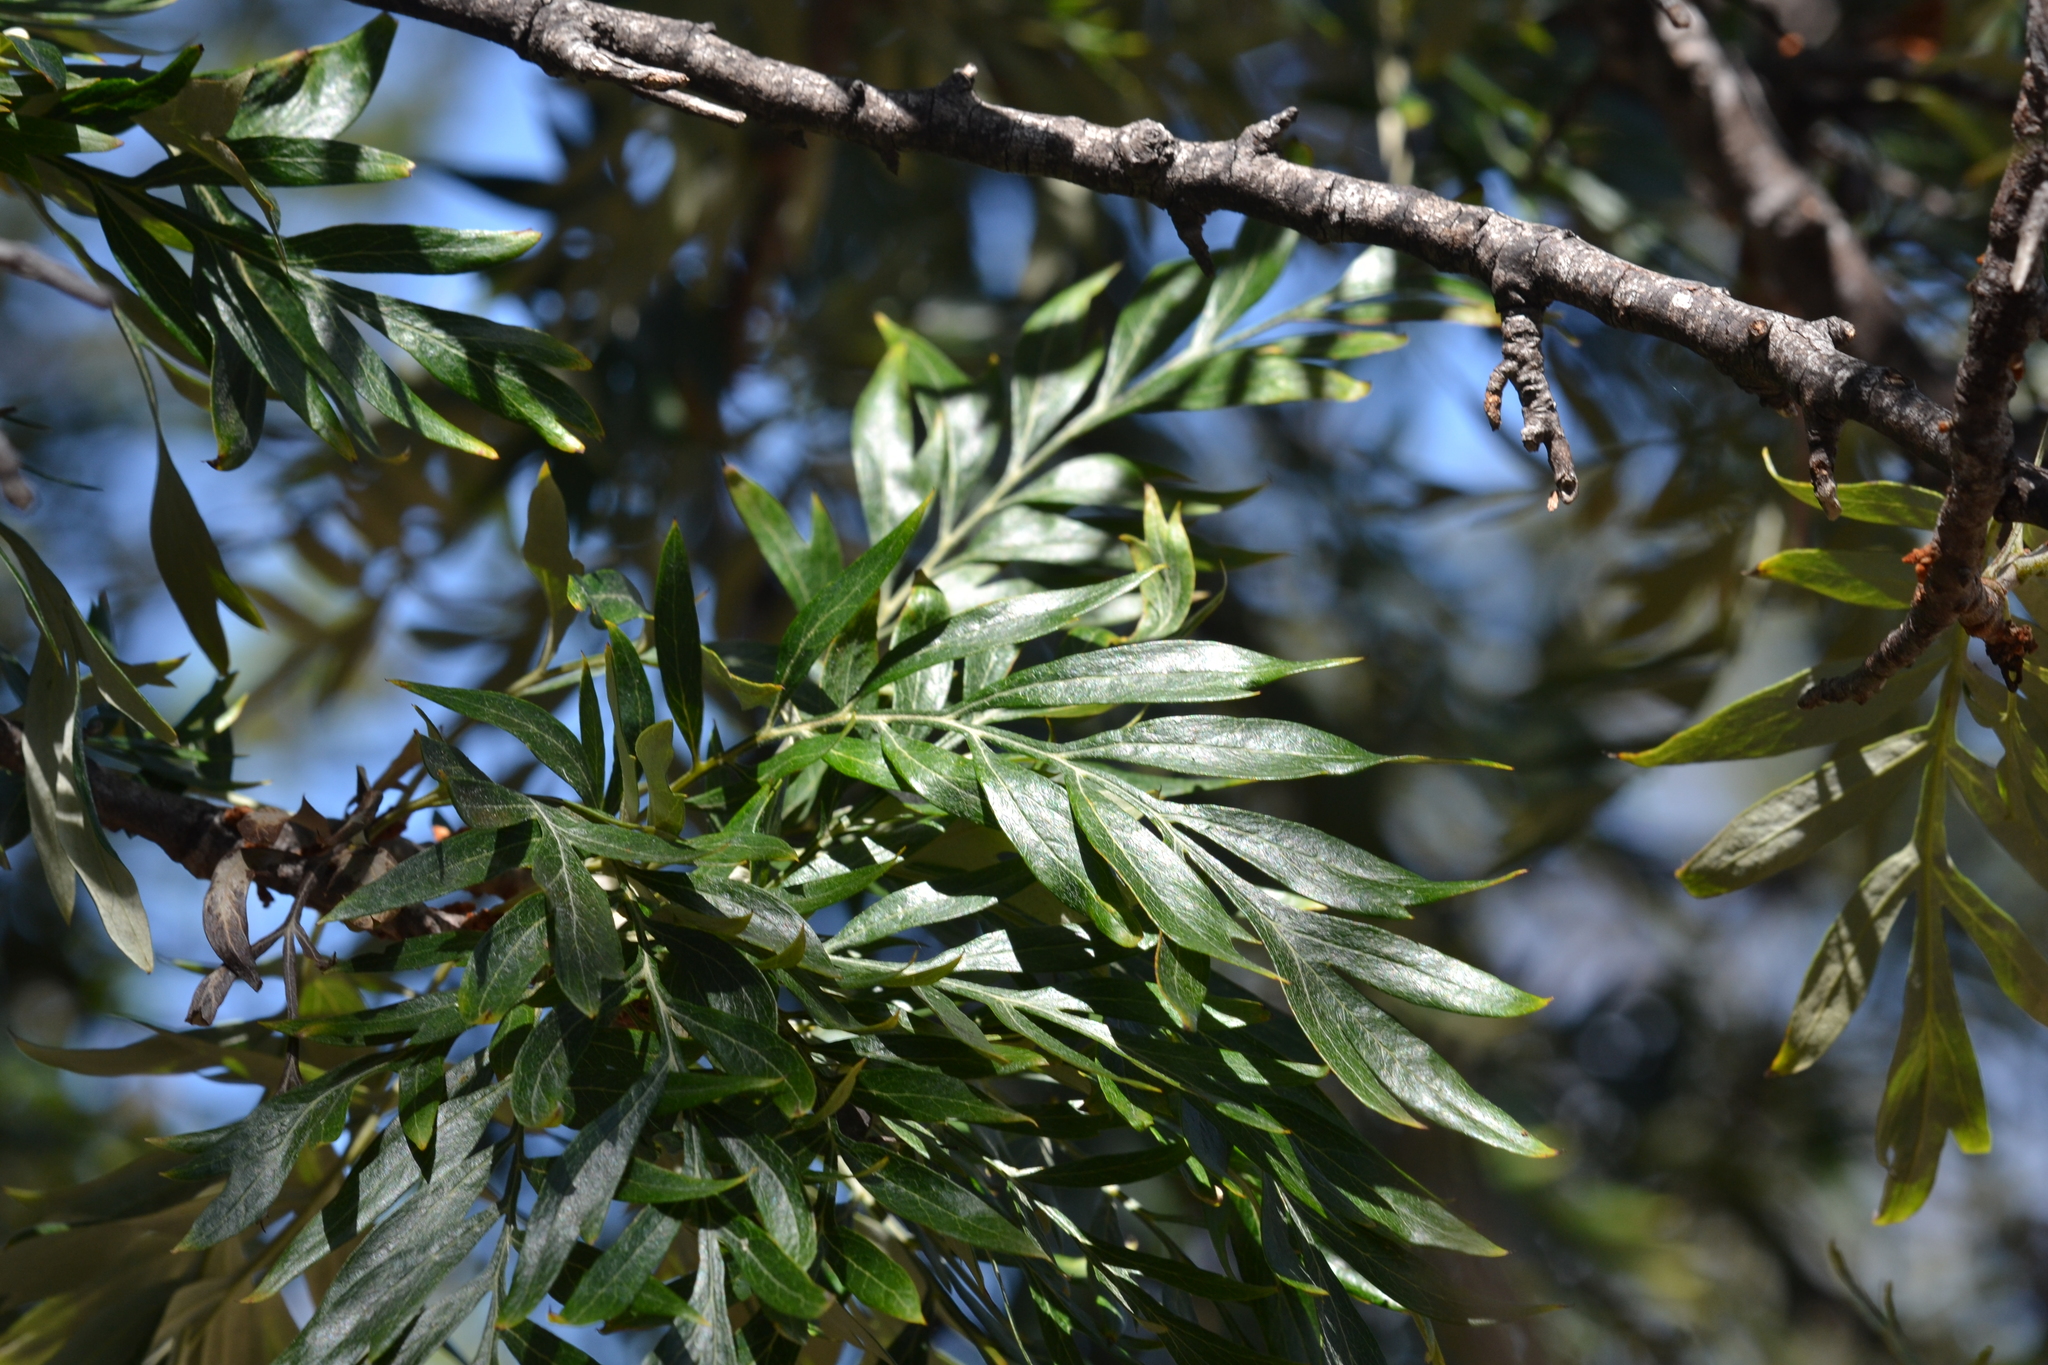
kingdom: Plantae
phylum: Tracheophyta
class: Magnoliopsida
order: Proteales
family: Proteaceae
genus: Grevillea
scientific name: Grevillea robusta
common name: Silkoak
